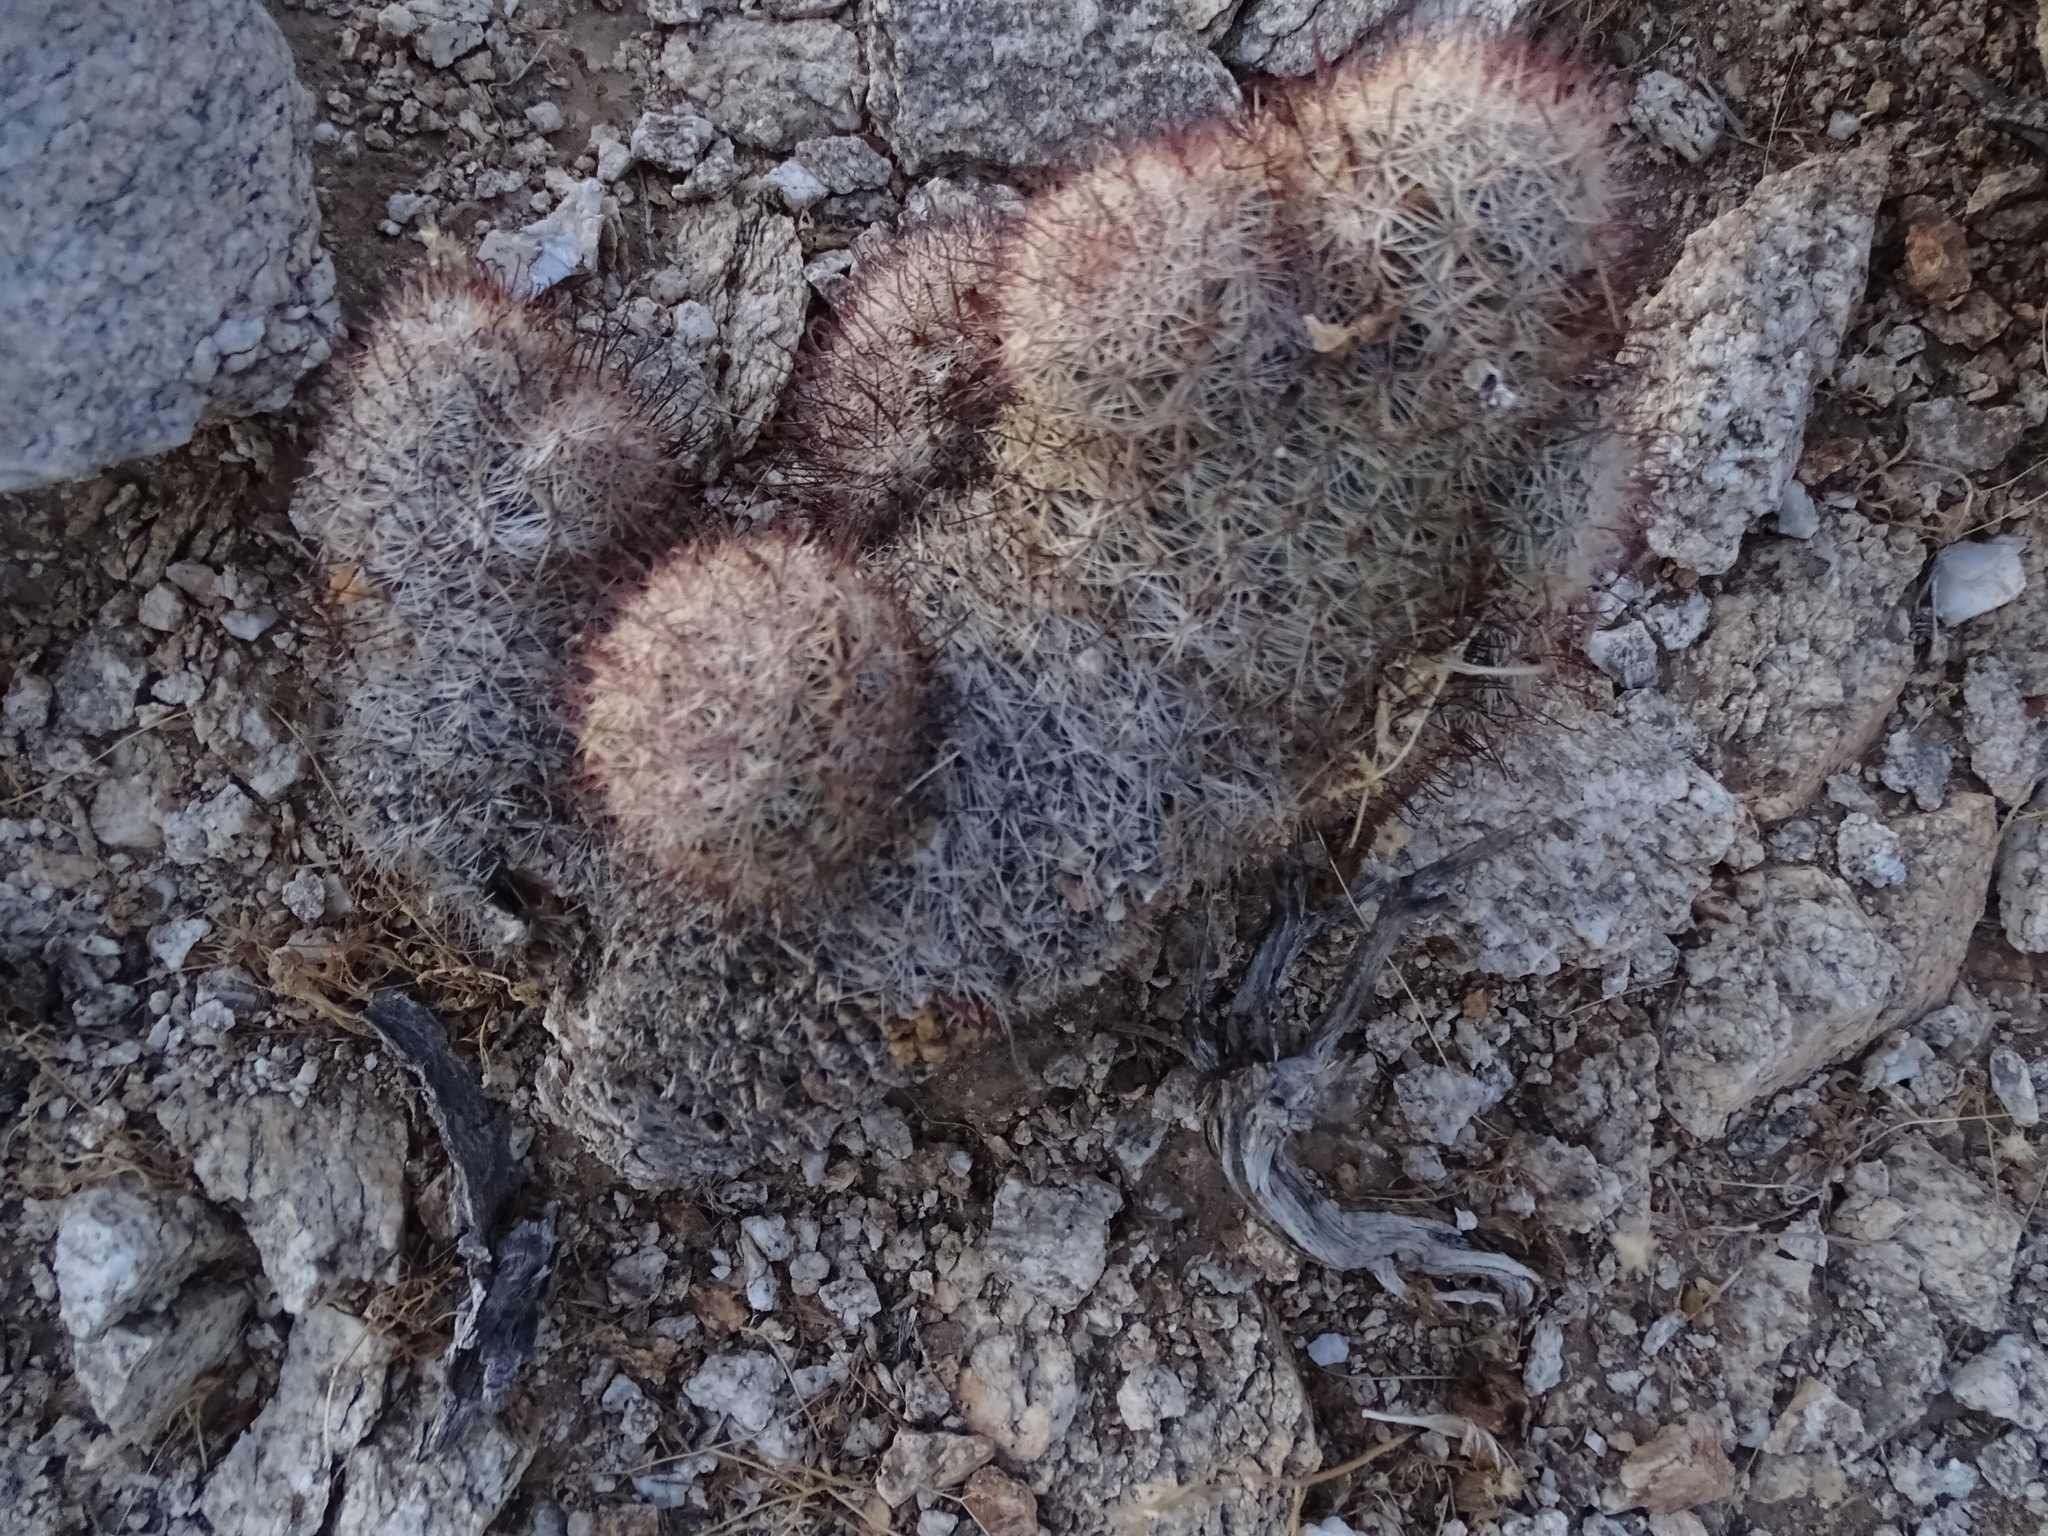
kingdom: Plantae
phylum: Tracheophyta
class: Magnoliopsida
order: Caryophyllales
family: Cactaceae
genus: Cochemiea
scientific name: Cochemiea dioica
